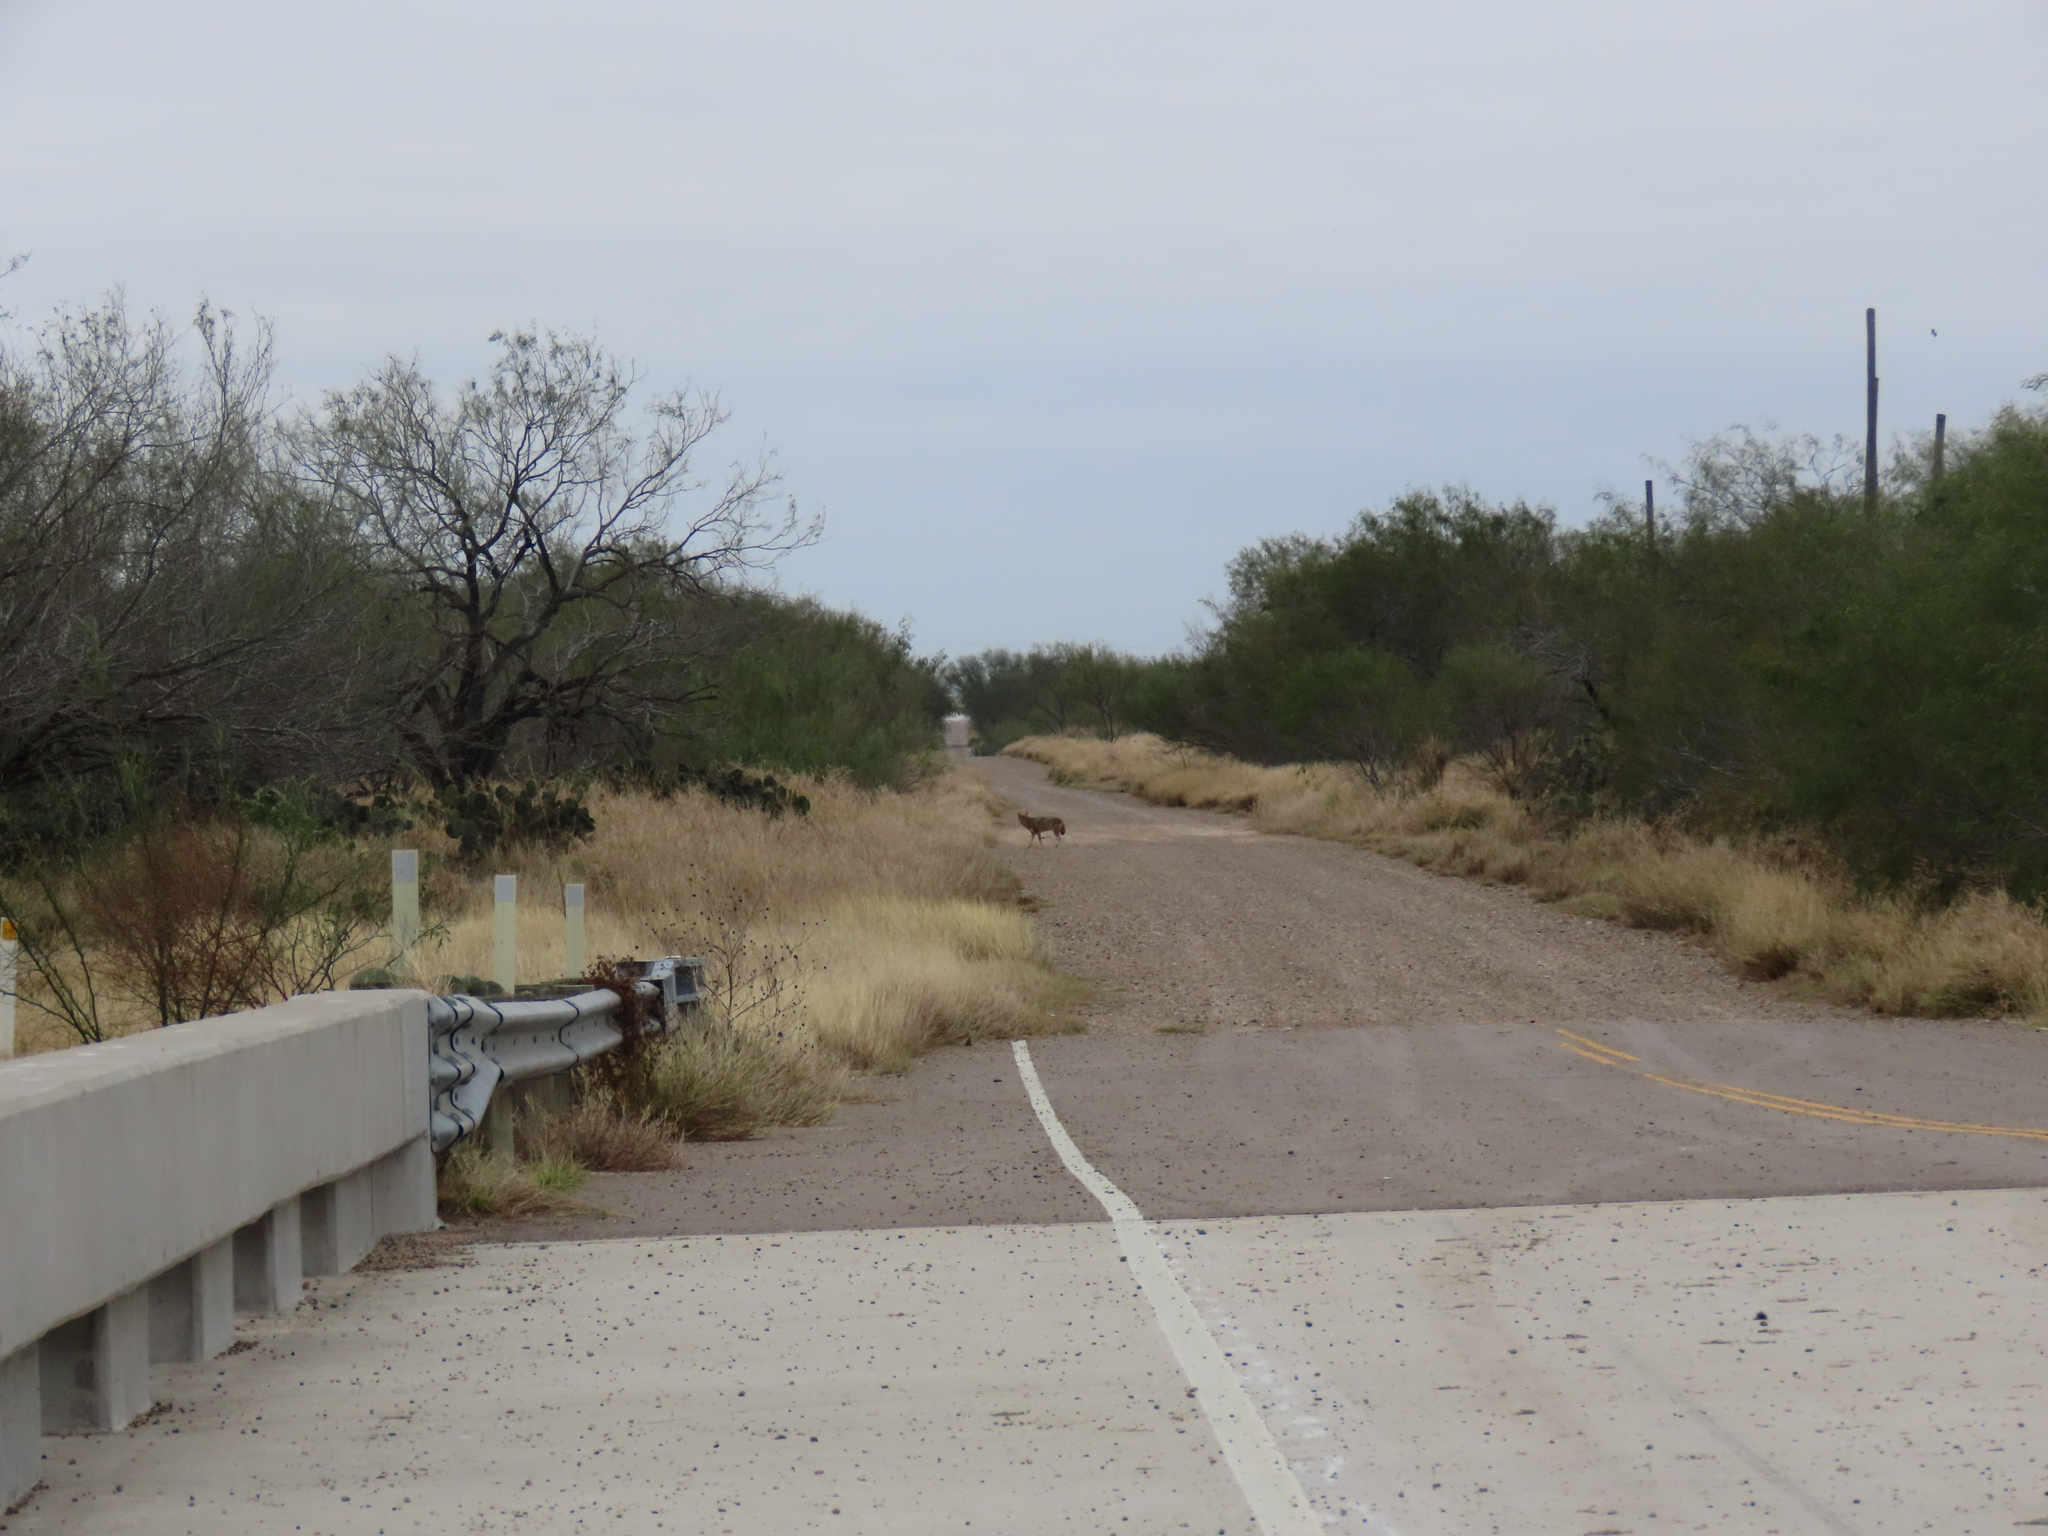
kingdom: Animalia
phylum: Chordata
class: Mammalia
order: Carnivora
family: Canidae
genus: Canis
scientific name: Canis latrans
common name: Coyote
